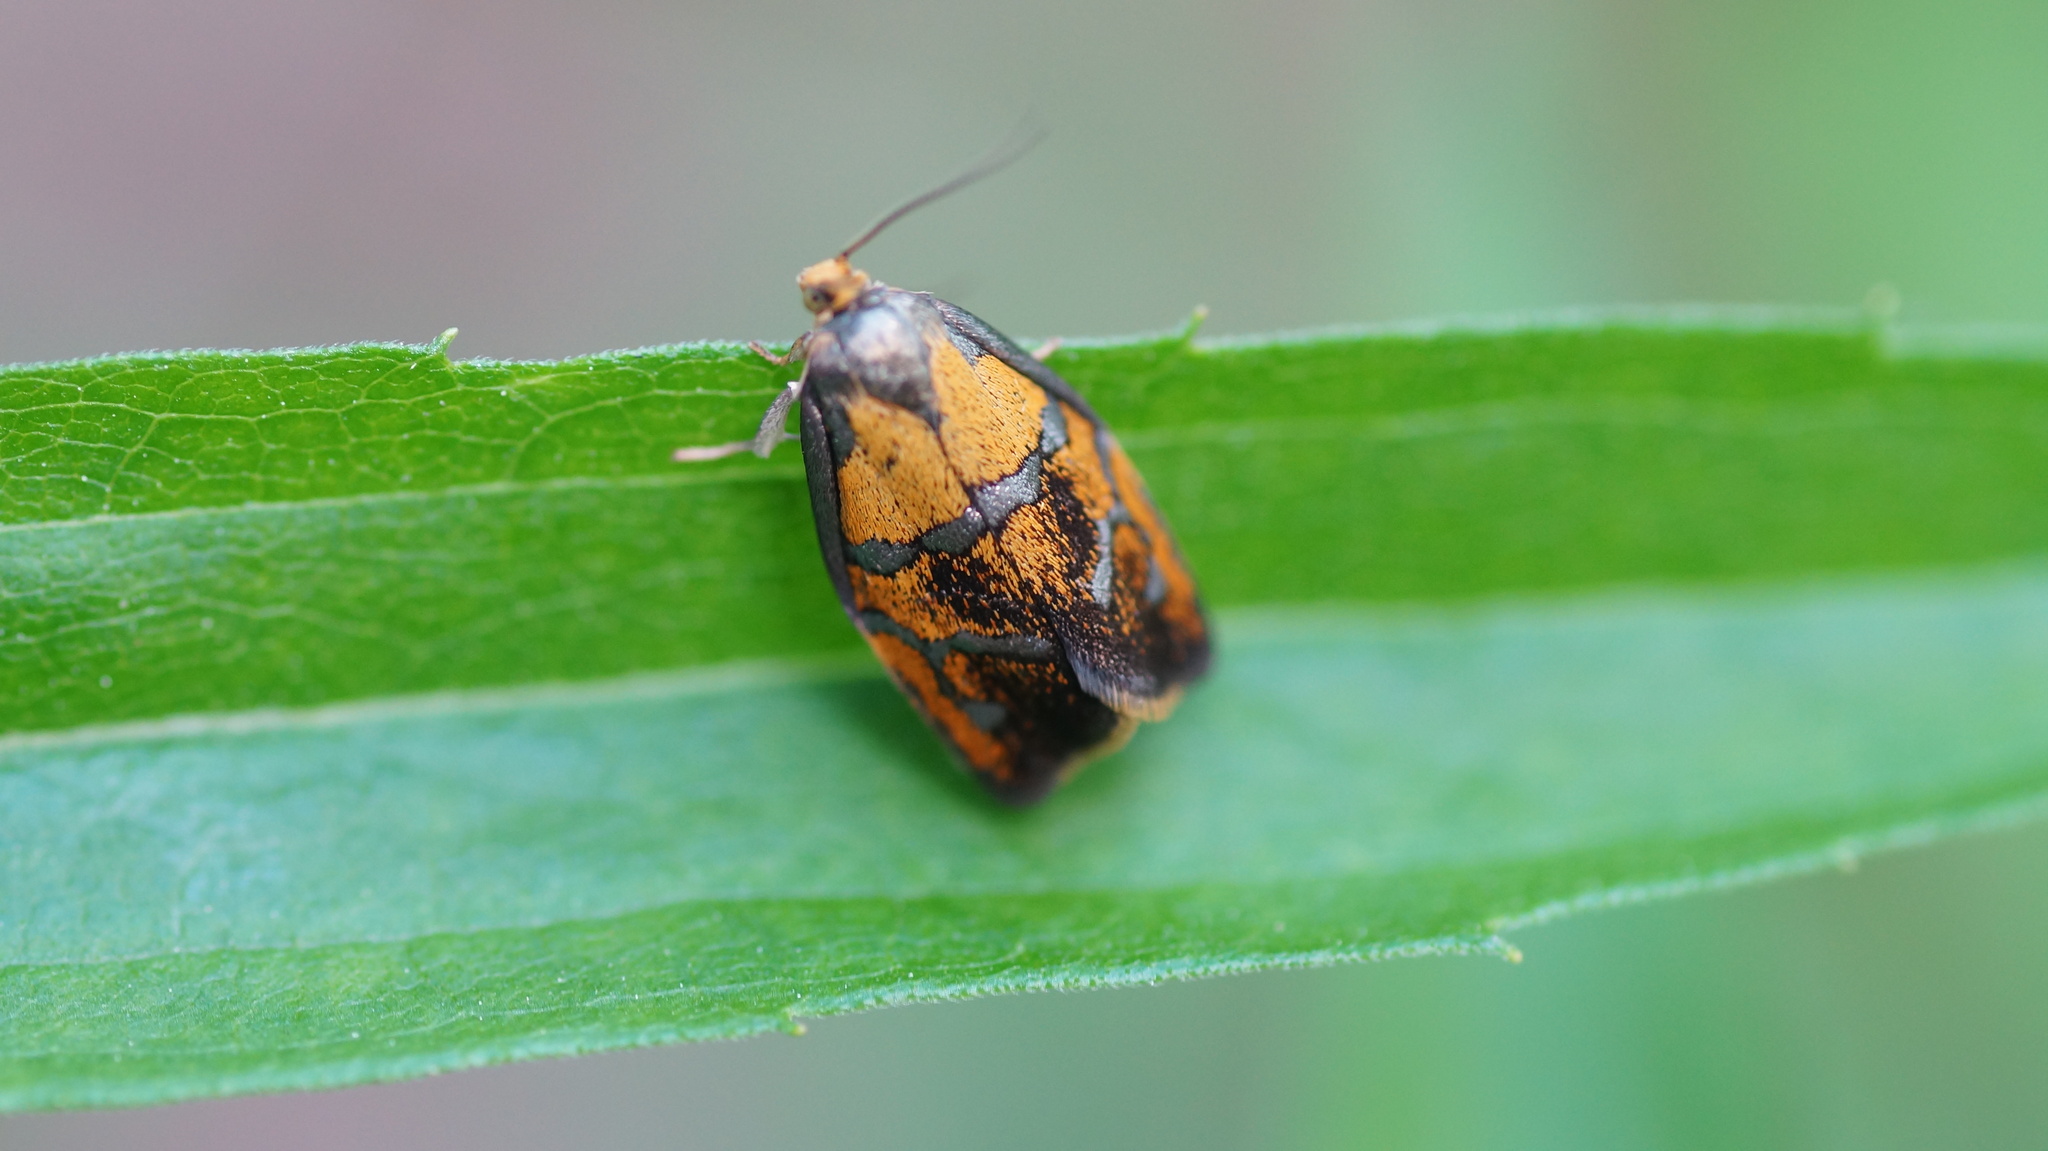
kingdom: Animalia
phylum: Arthropoda
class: Insecta
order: Lepidoptera
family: Tortricidae
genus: Ptycholoma
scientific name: Ptycholoma lecheana
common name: Leches twist moth
